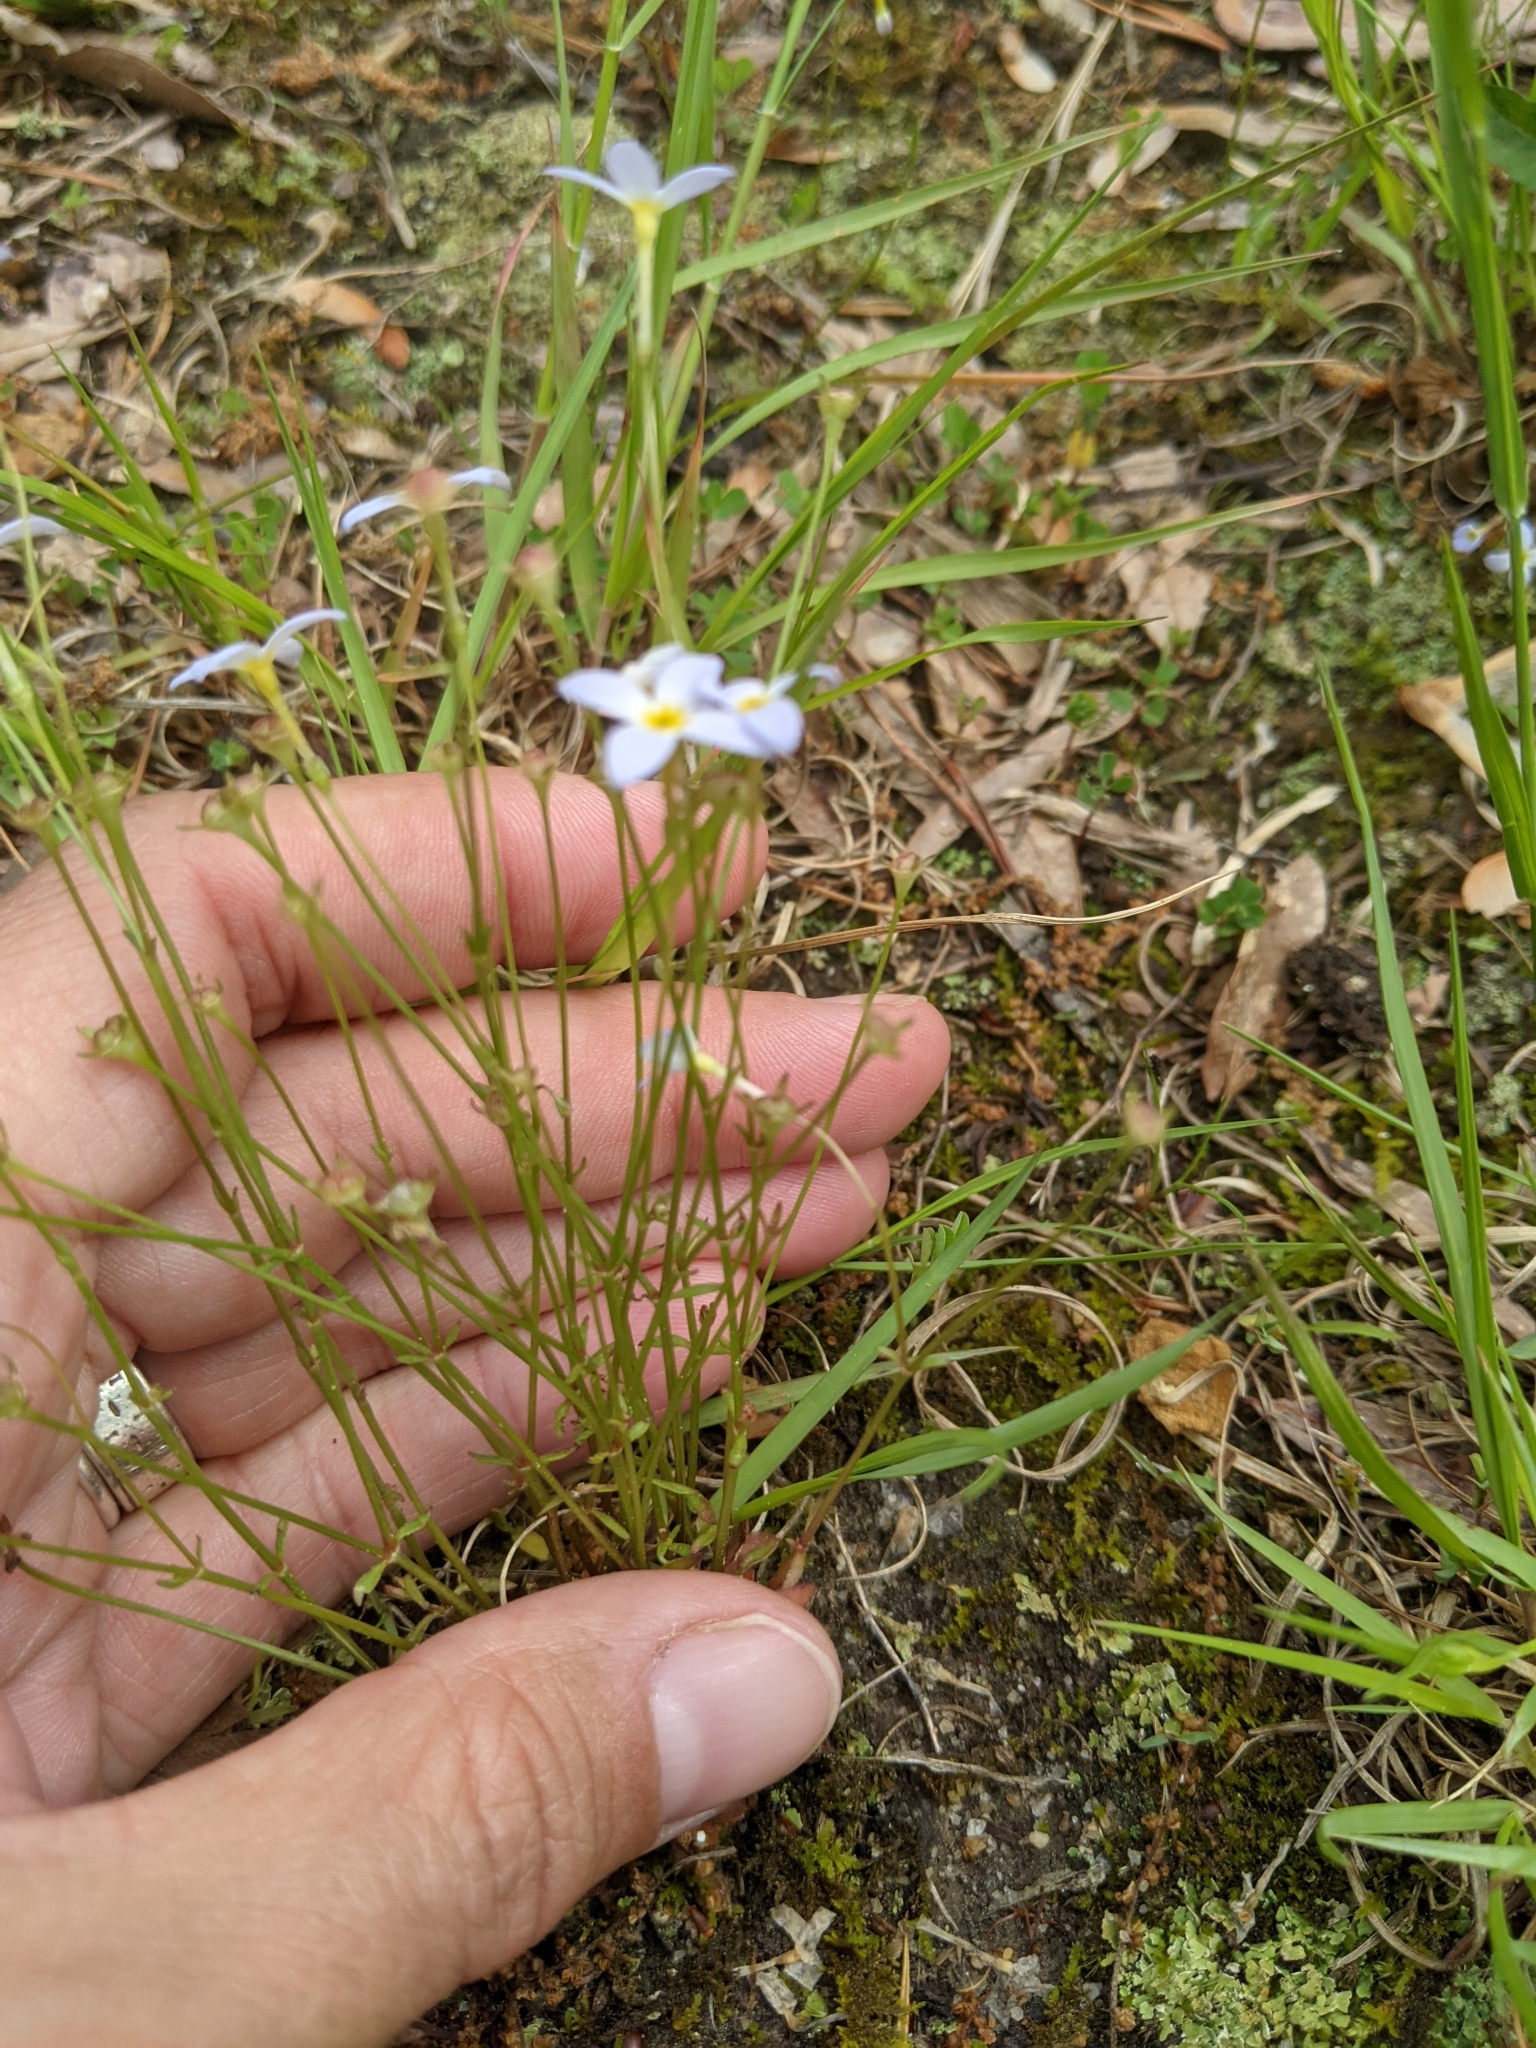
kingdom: Plantae
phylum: Tracheophyta
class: Magnoliopsida
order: Gentianales
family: Rubiaceae
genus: Houstonia
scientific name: Houstonia caerulea
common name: Bluets
